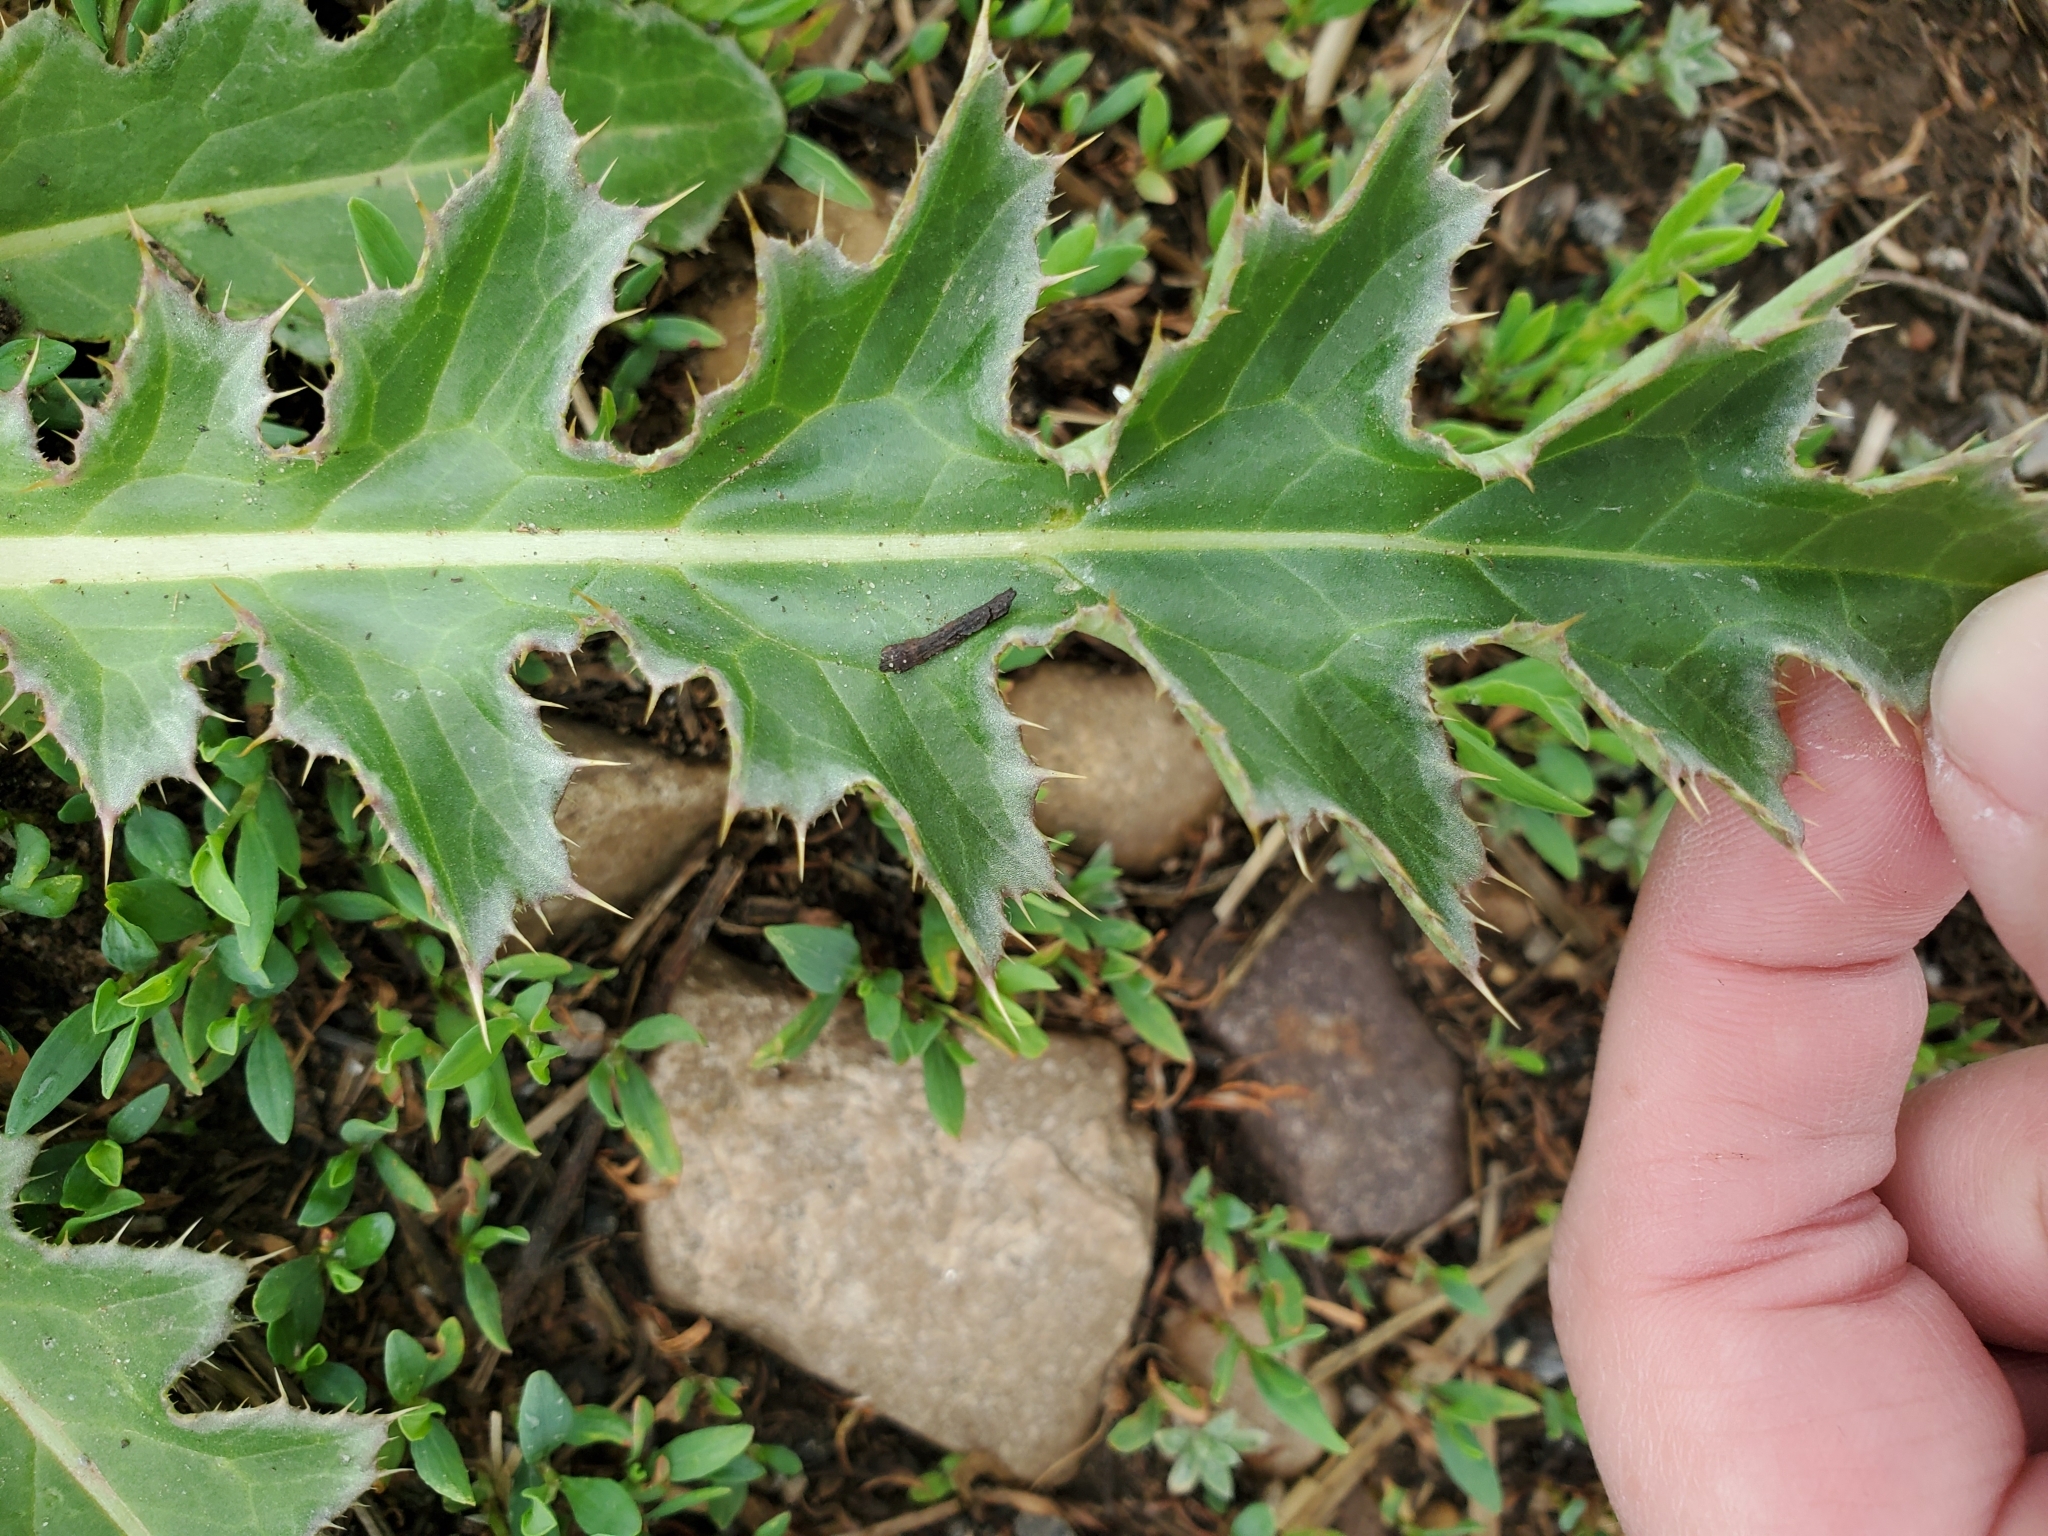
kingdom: Plantae
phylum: Tracheophyta
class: Magnoliopsida
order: Asterales
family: Asteraceae
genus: Carduus
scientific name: Carduus nutans
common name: Musk thistle
